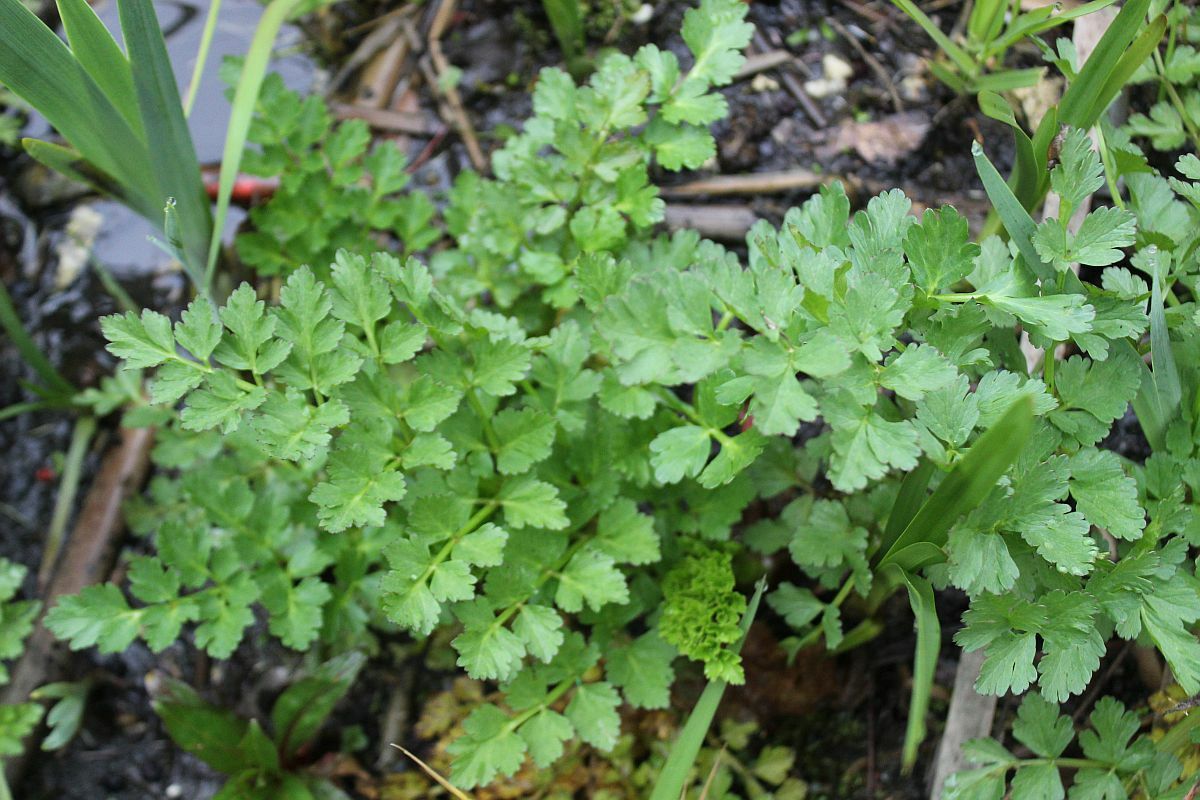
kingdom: Plantae
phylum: Tracheophyta
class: Magnoliopsida
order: Apiales
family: Apiaceae
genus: Oenanthe
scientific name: Oenanthe crocata
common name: Hemlock water-dropwort
